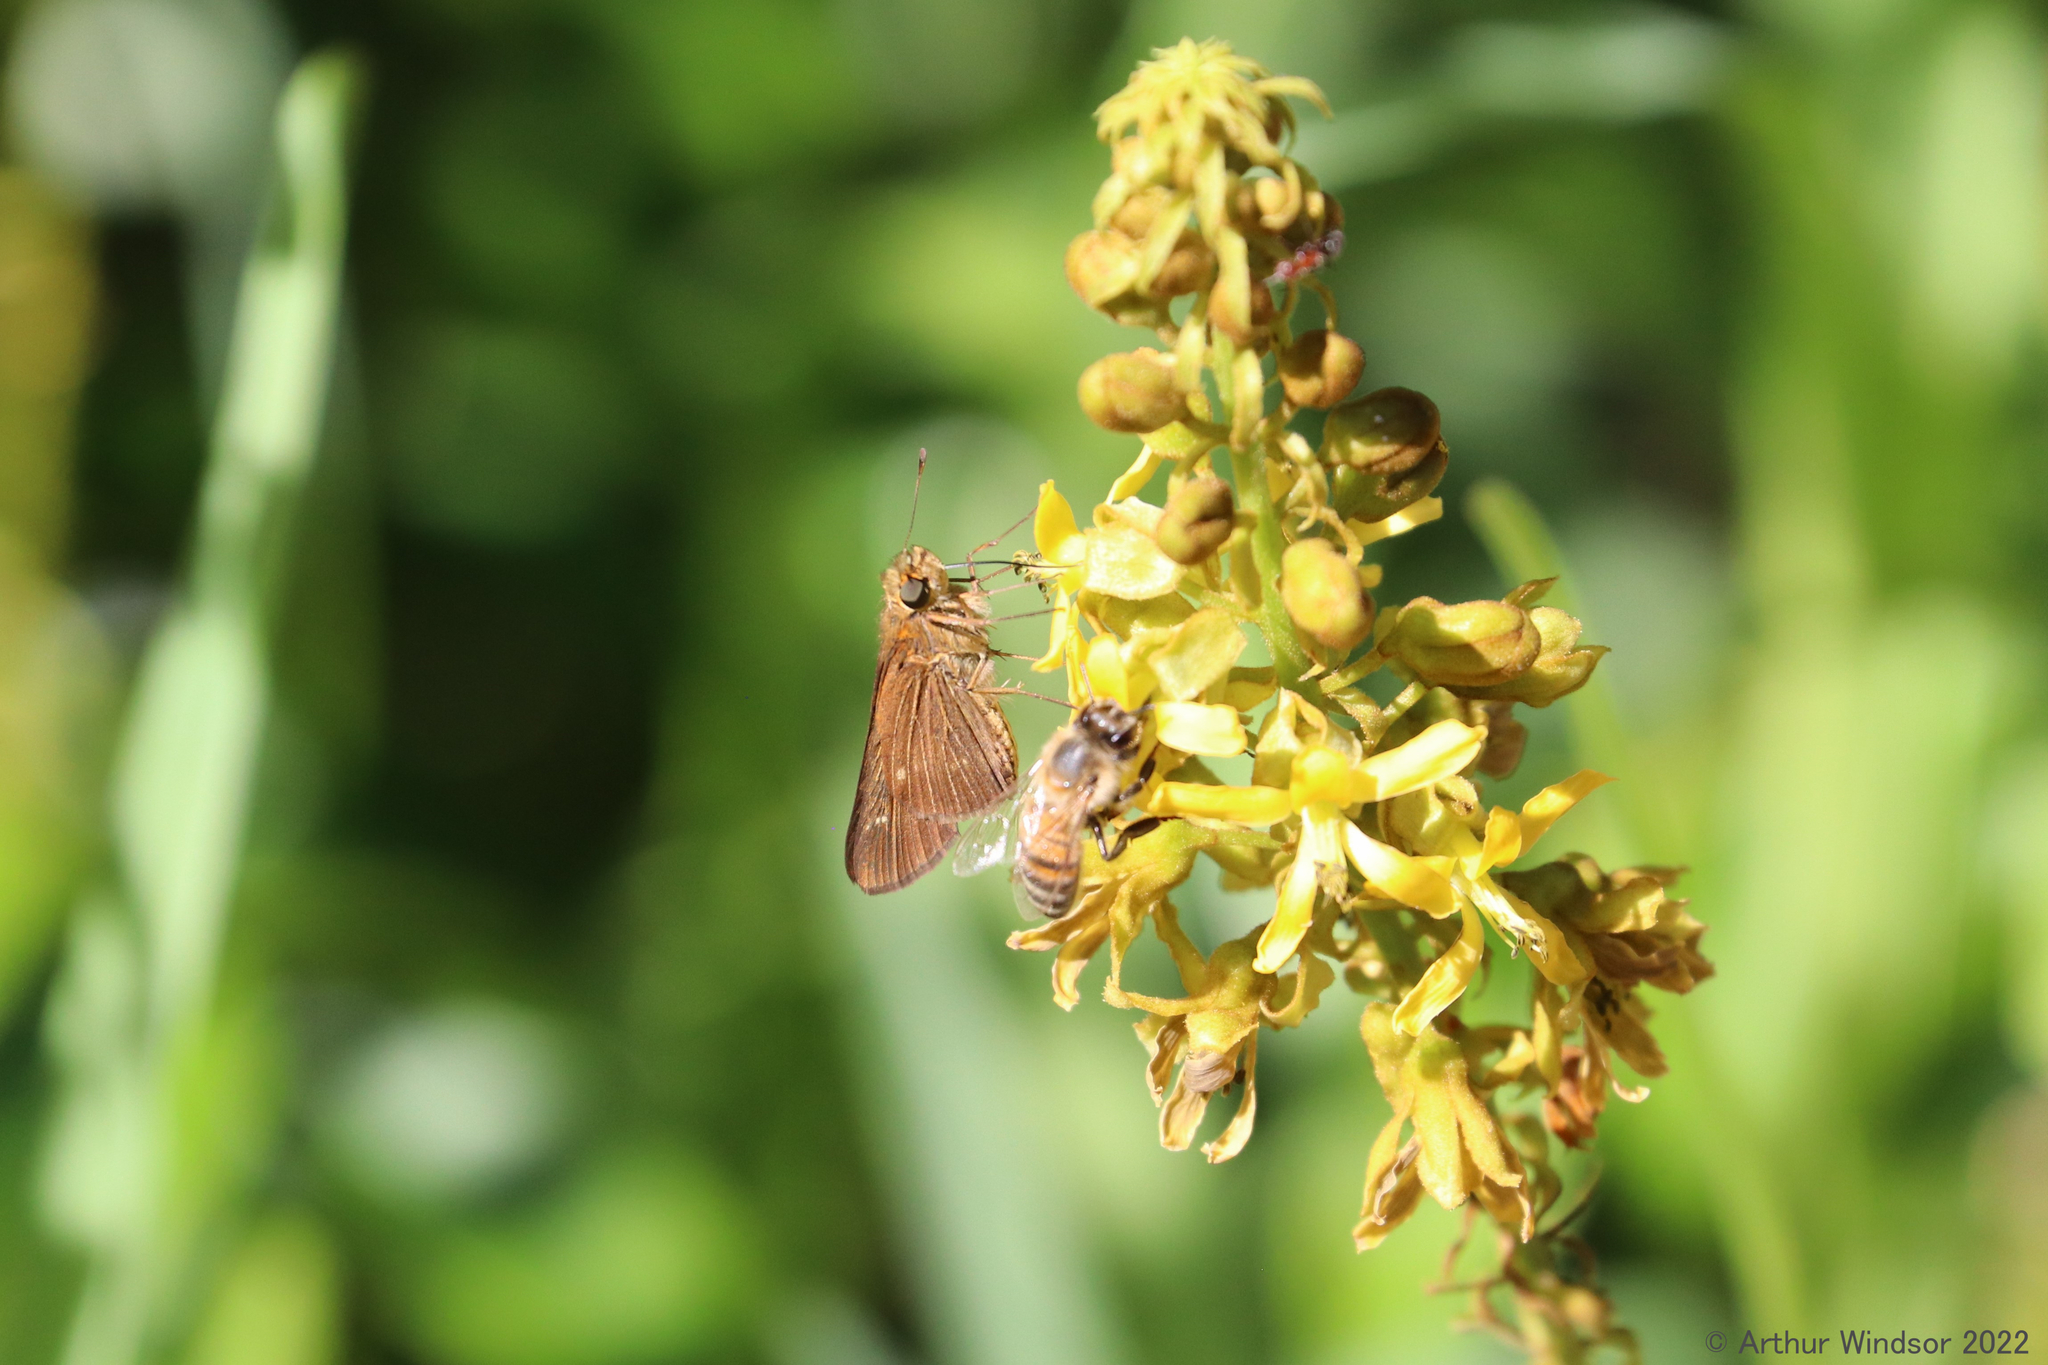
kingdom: Animalia
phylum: Arthropoda
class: Insecta
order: Lepidoptera
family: Hesperiidae
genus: Panoquina
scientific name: Panoquina ocola
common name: Ocola skipper
